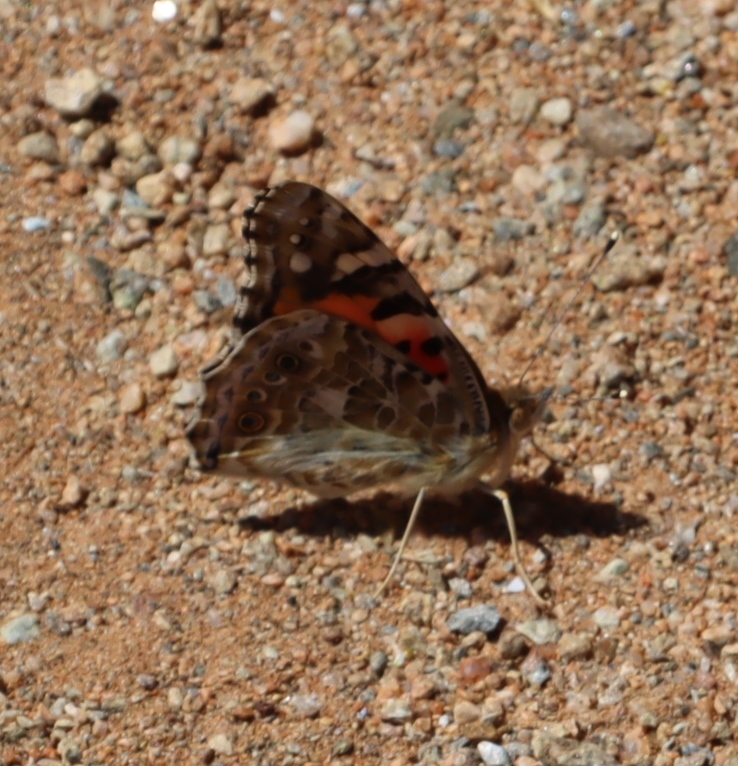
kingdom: Animalia
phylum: Arthropoda
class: Insecta
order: Lepidoptera
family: Nymphalidae
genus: Vanessa
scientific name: Vanessa cardui
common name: Painted lady
